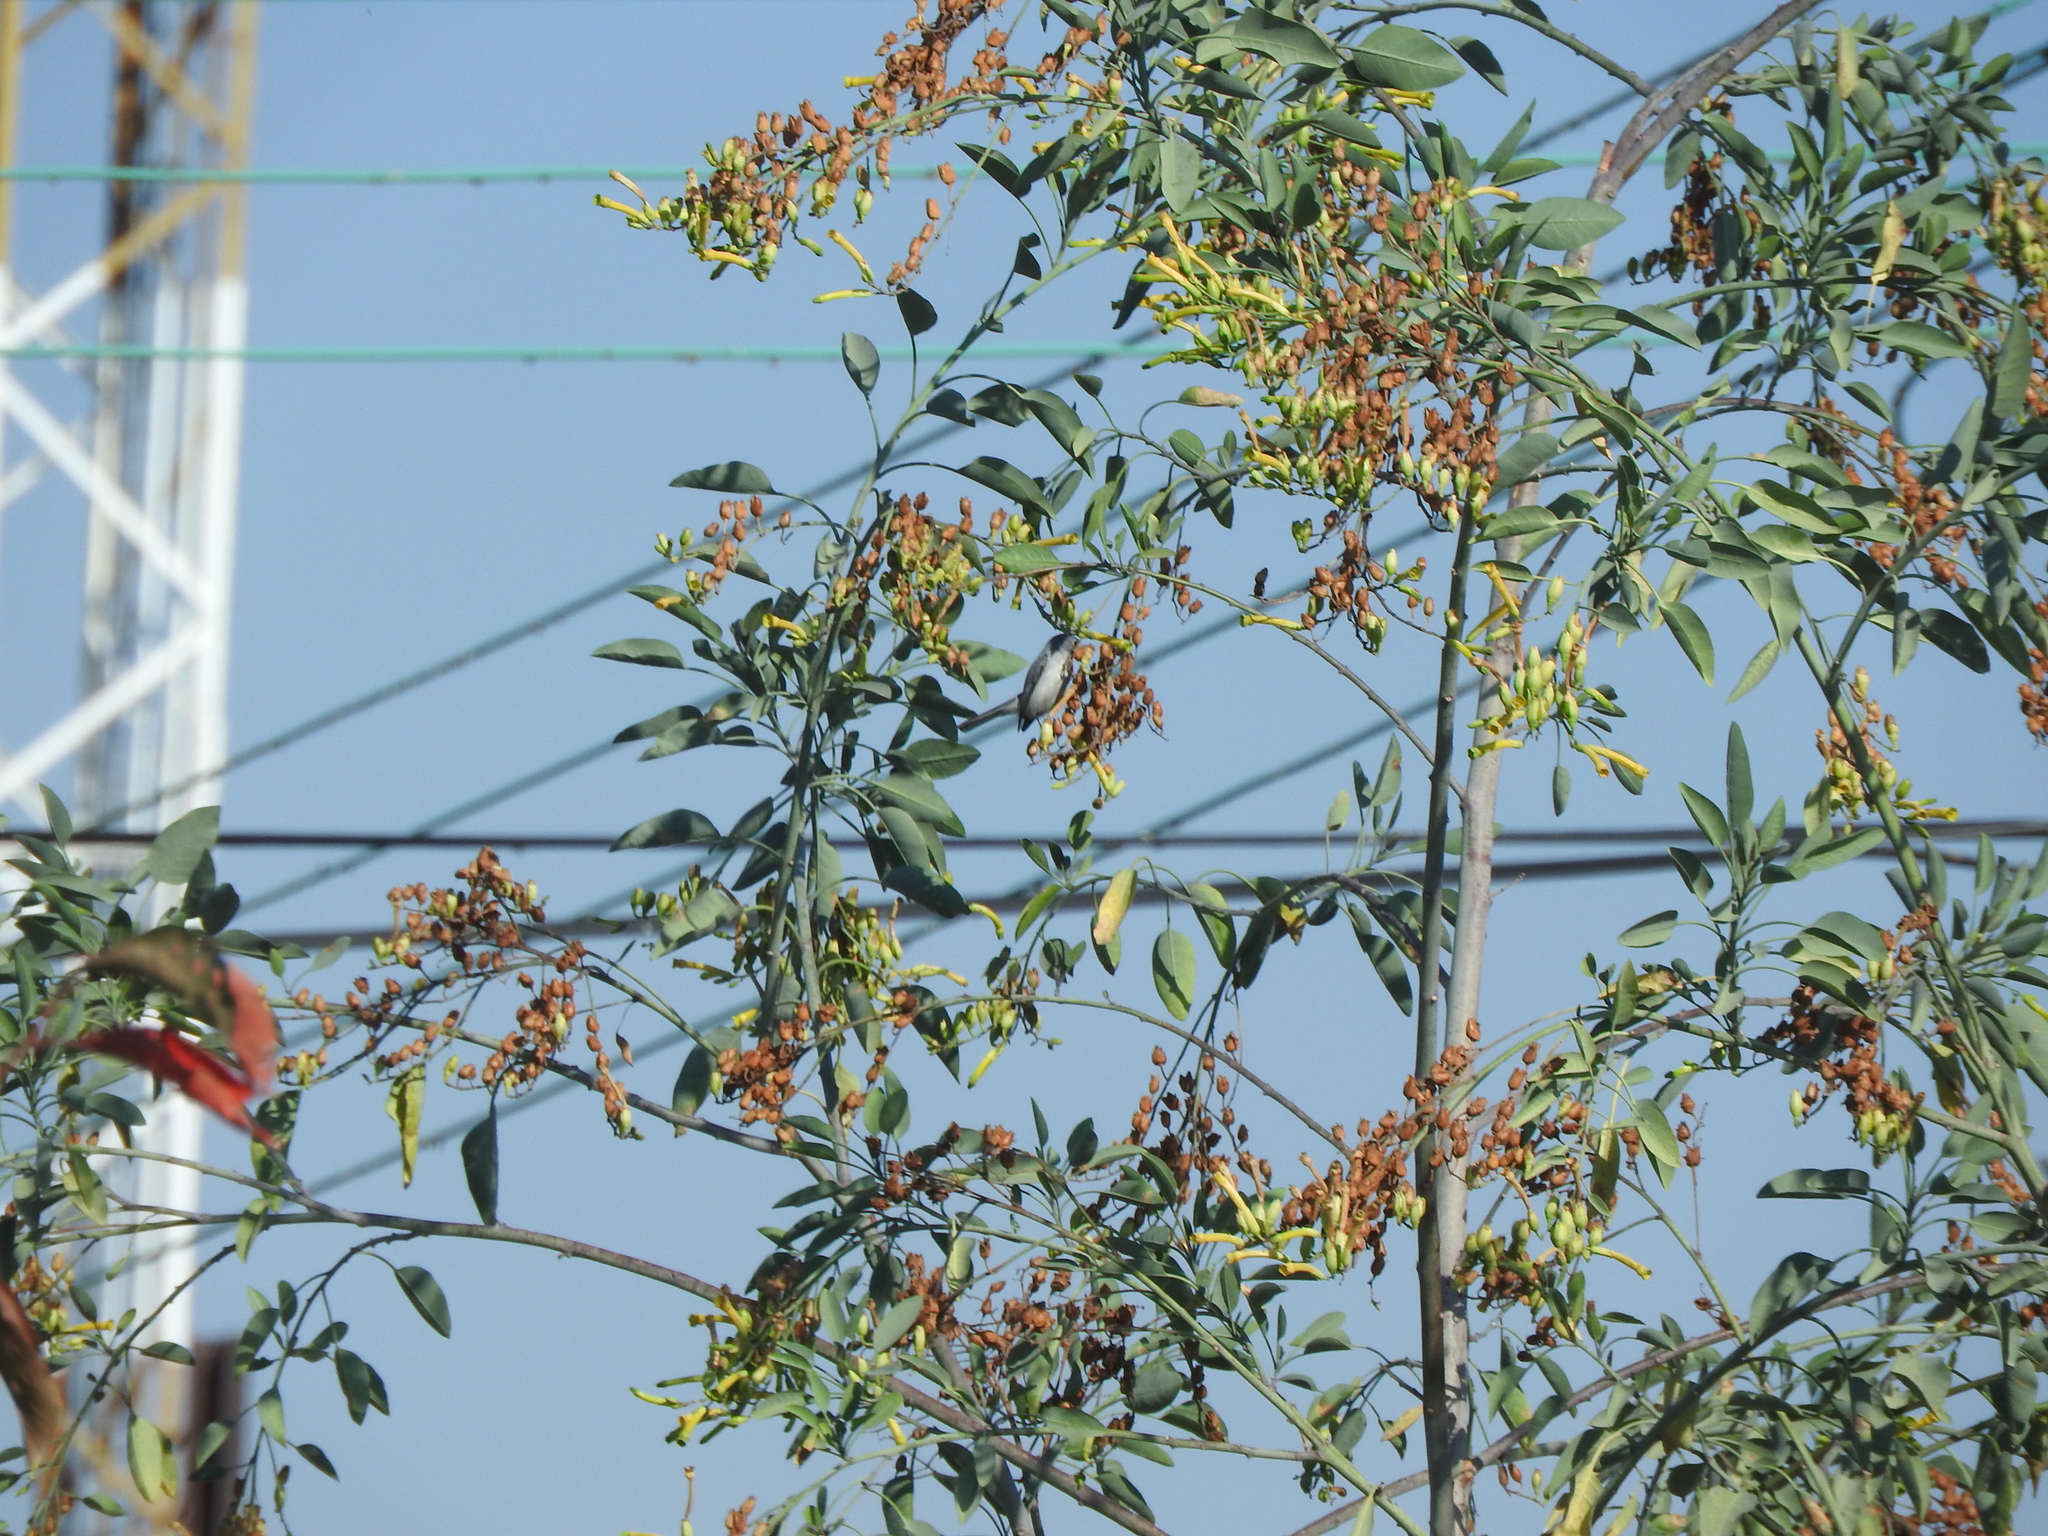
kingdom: Plantae
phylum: Tracheophyta
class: Magnoliopsida
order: Solanales
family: Solanaceae
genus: Nicotiana
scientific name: Nicotiana glauca
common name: Tree tobacco
